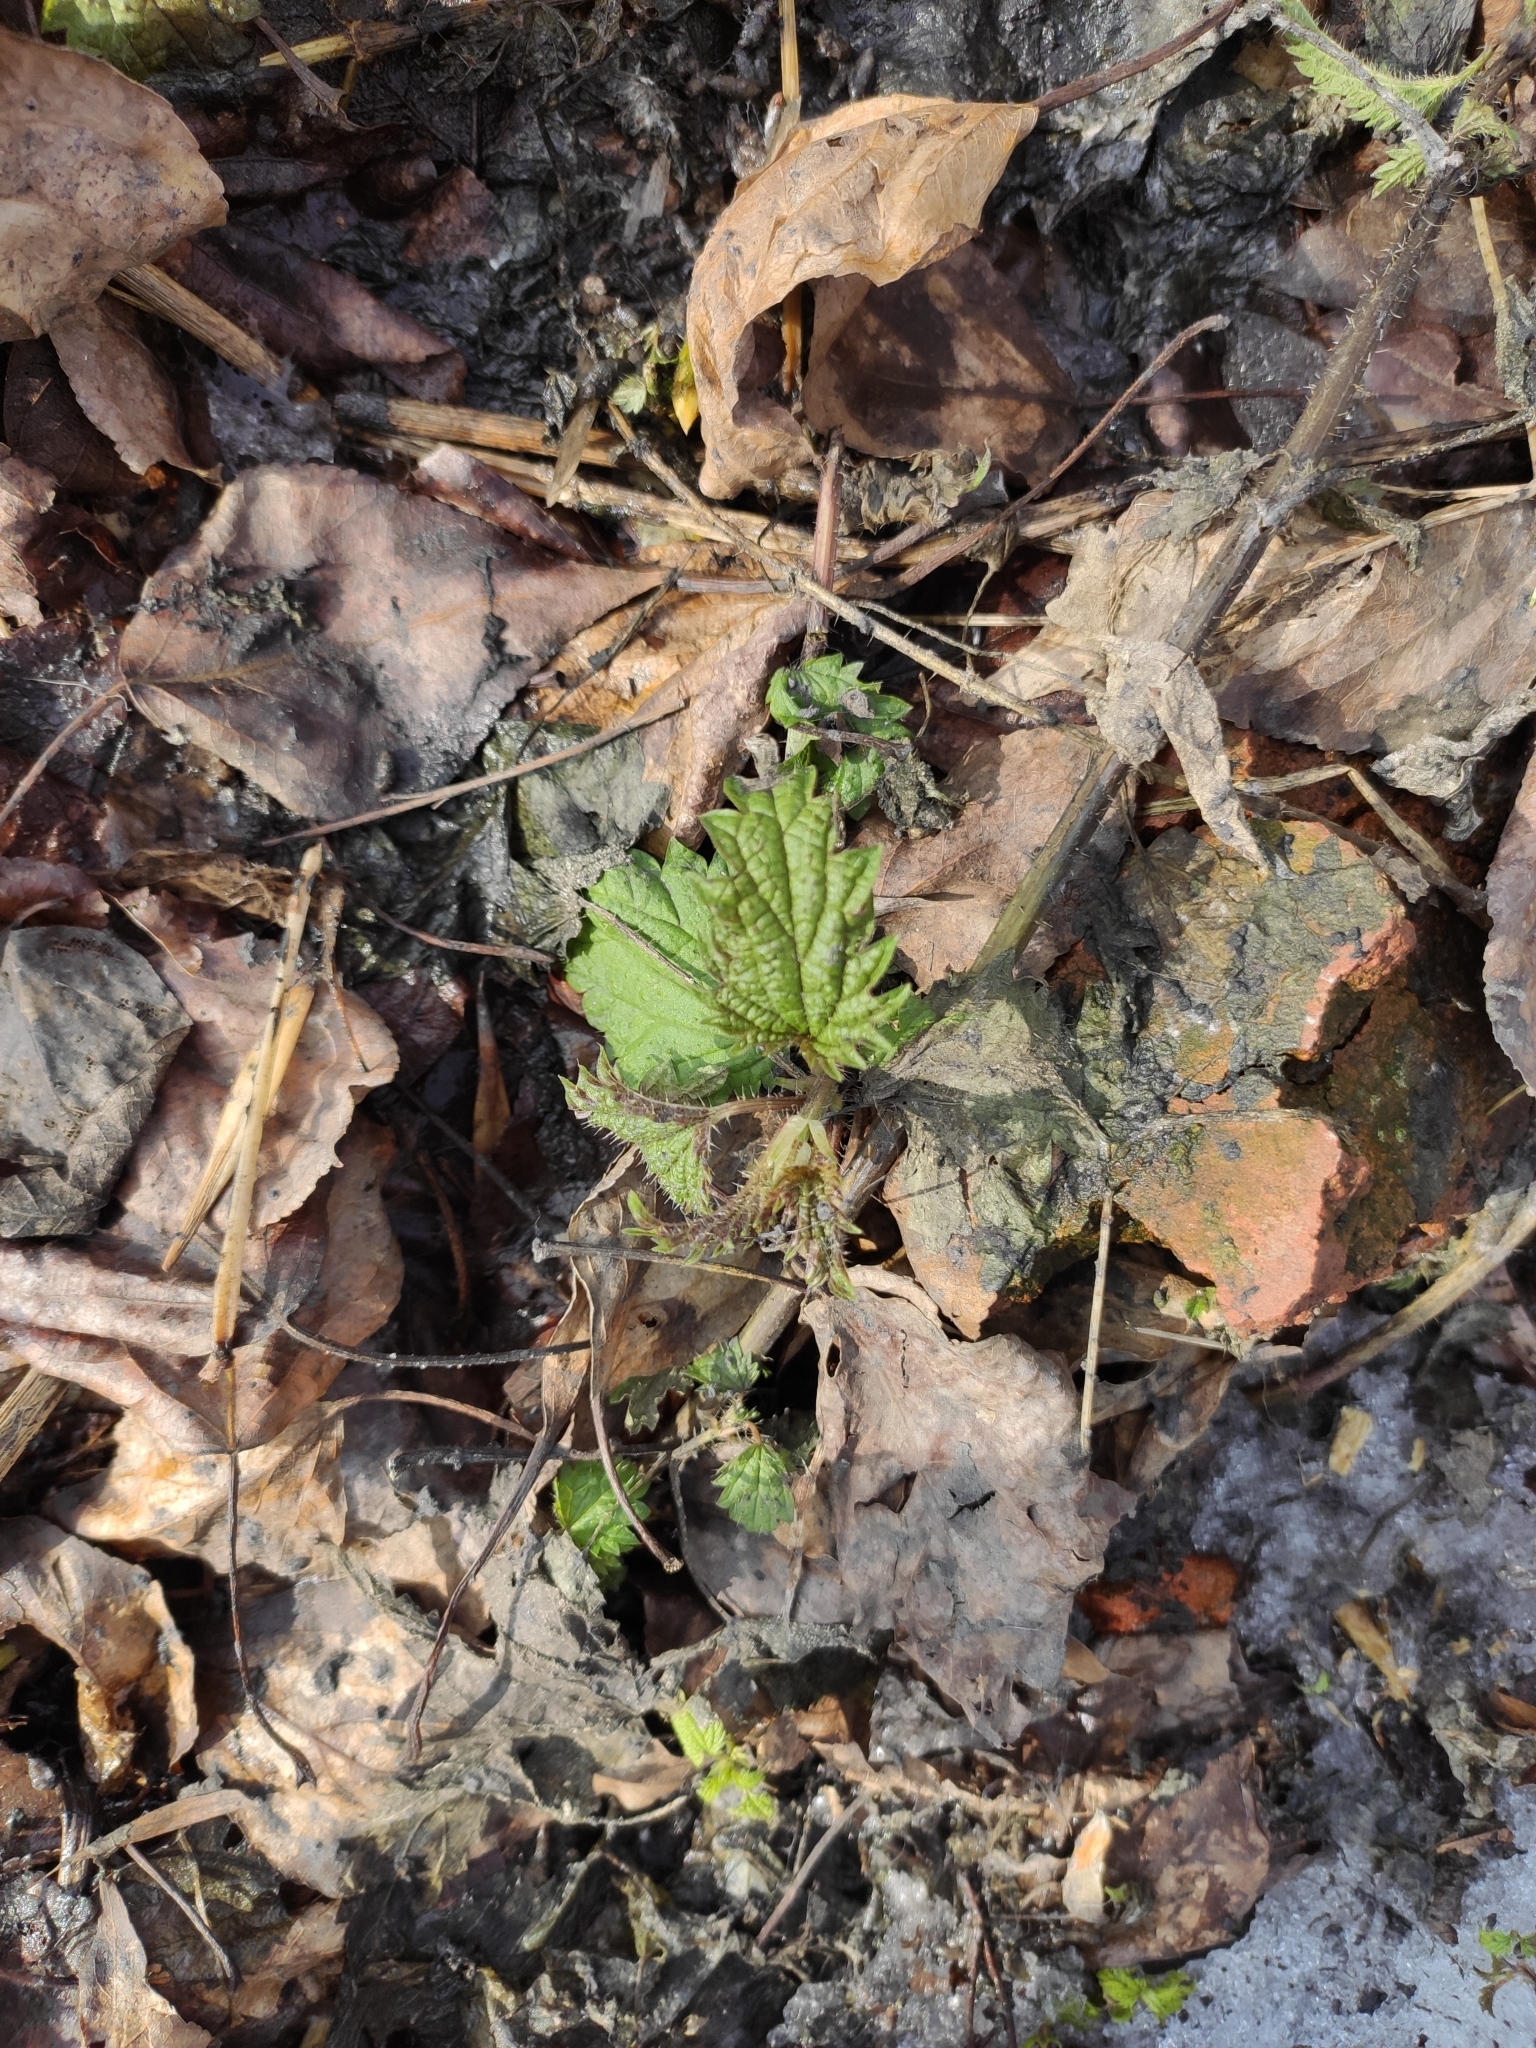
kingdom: Plantae
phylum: Tracheophyta
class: Magnoliopsida
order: Rosales
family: Urticaceae
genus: Urtica
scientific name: Urtica dioica
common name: Common nettle
